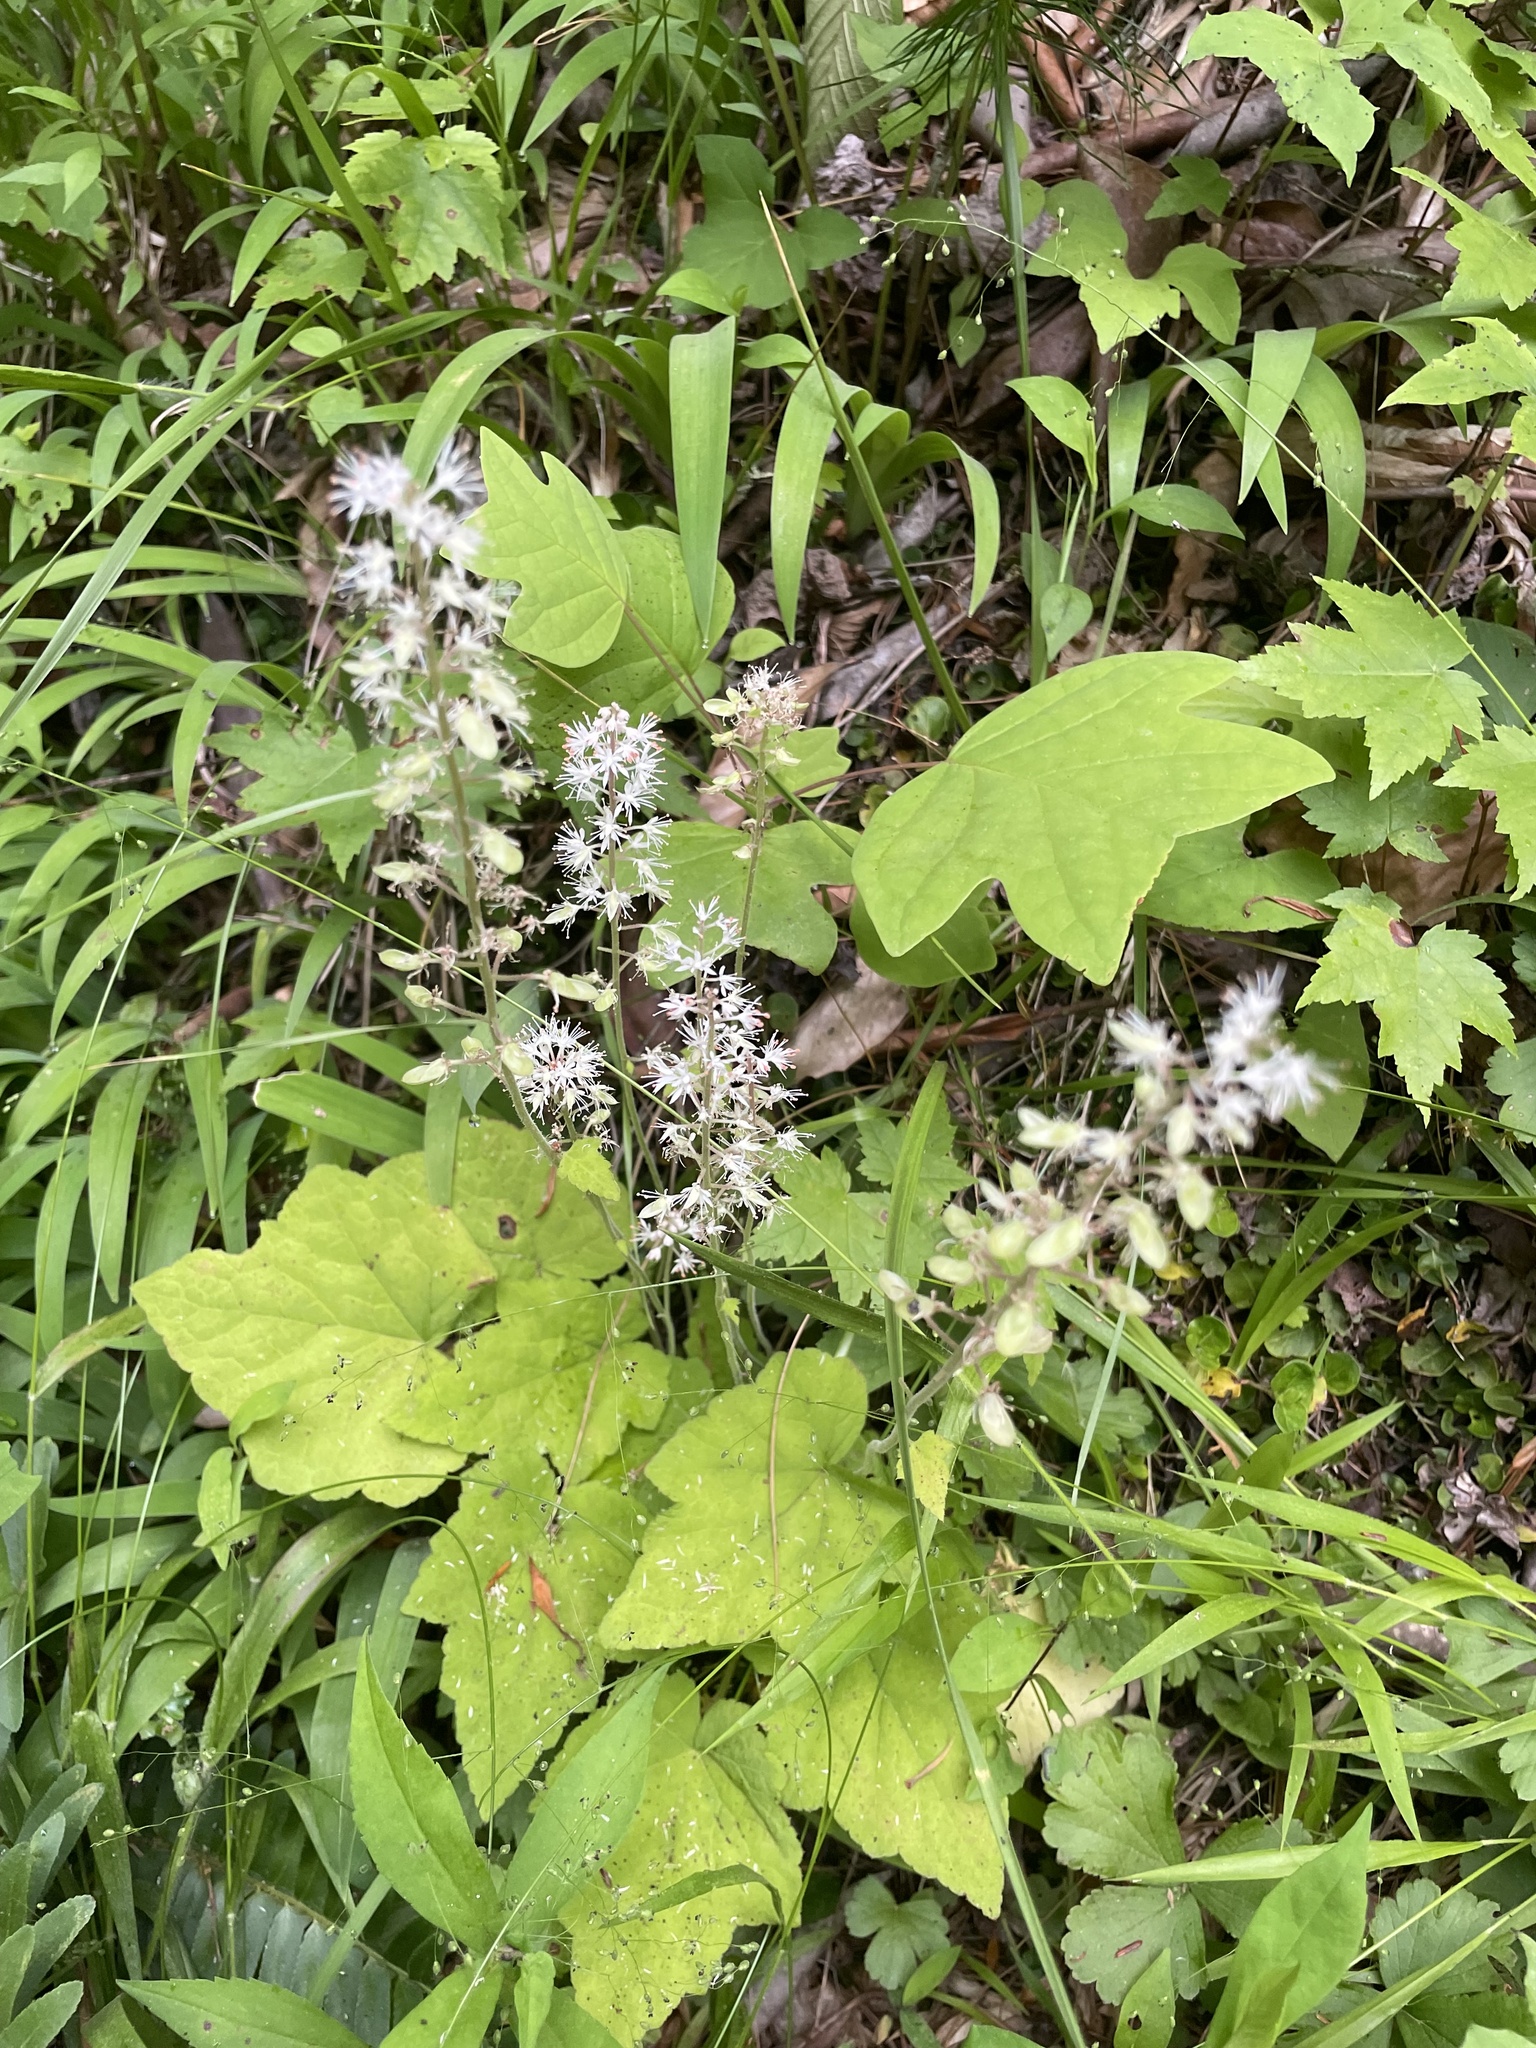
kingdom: Plantae
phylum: Tracheophyta
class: Magnoliopsida
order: Saxifragales
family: Saxifragaceae
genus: Tiarella
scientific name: Tiarella nautila
